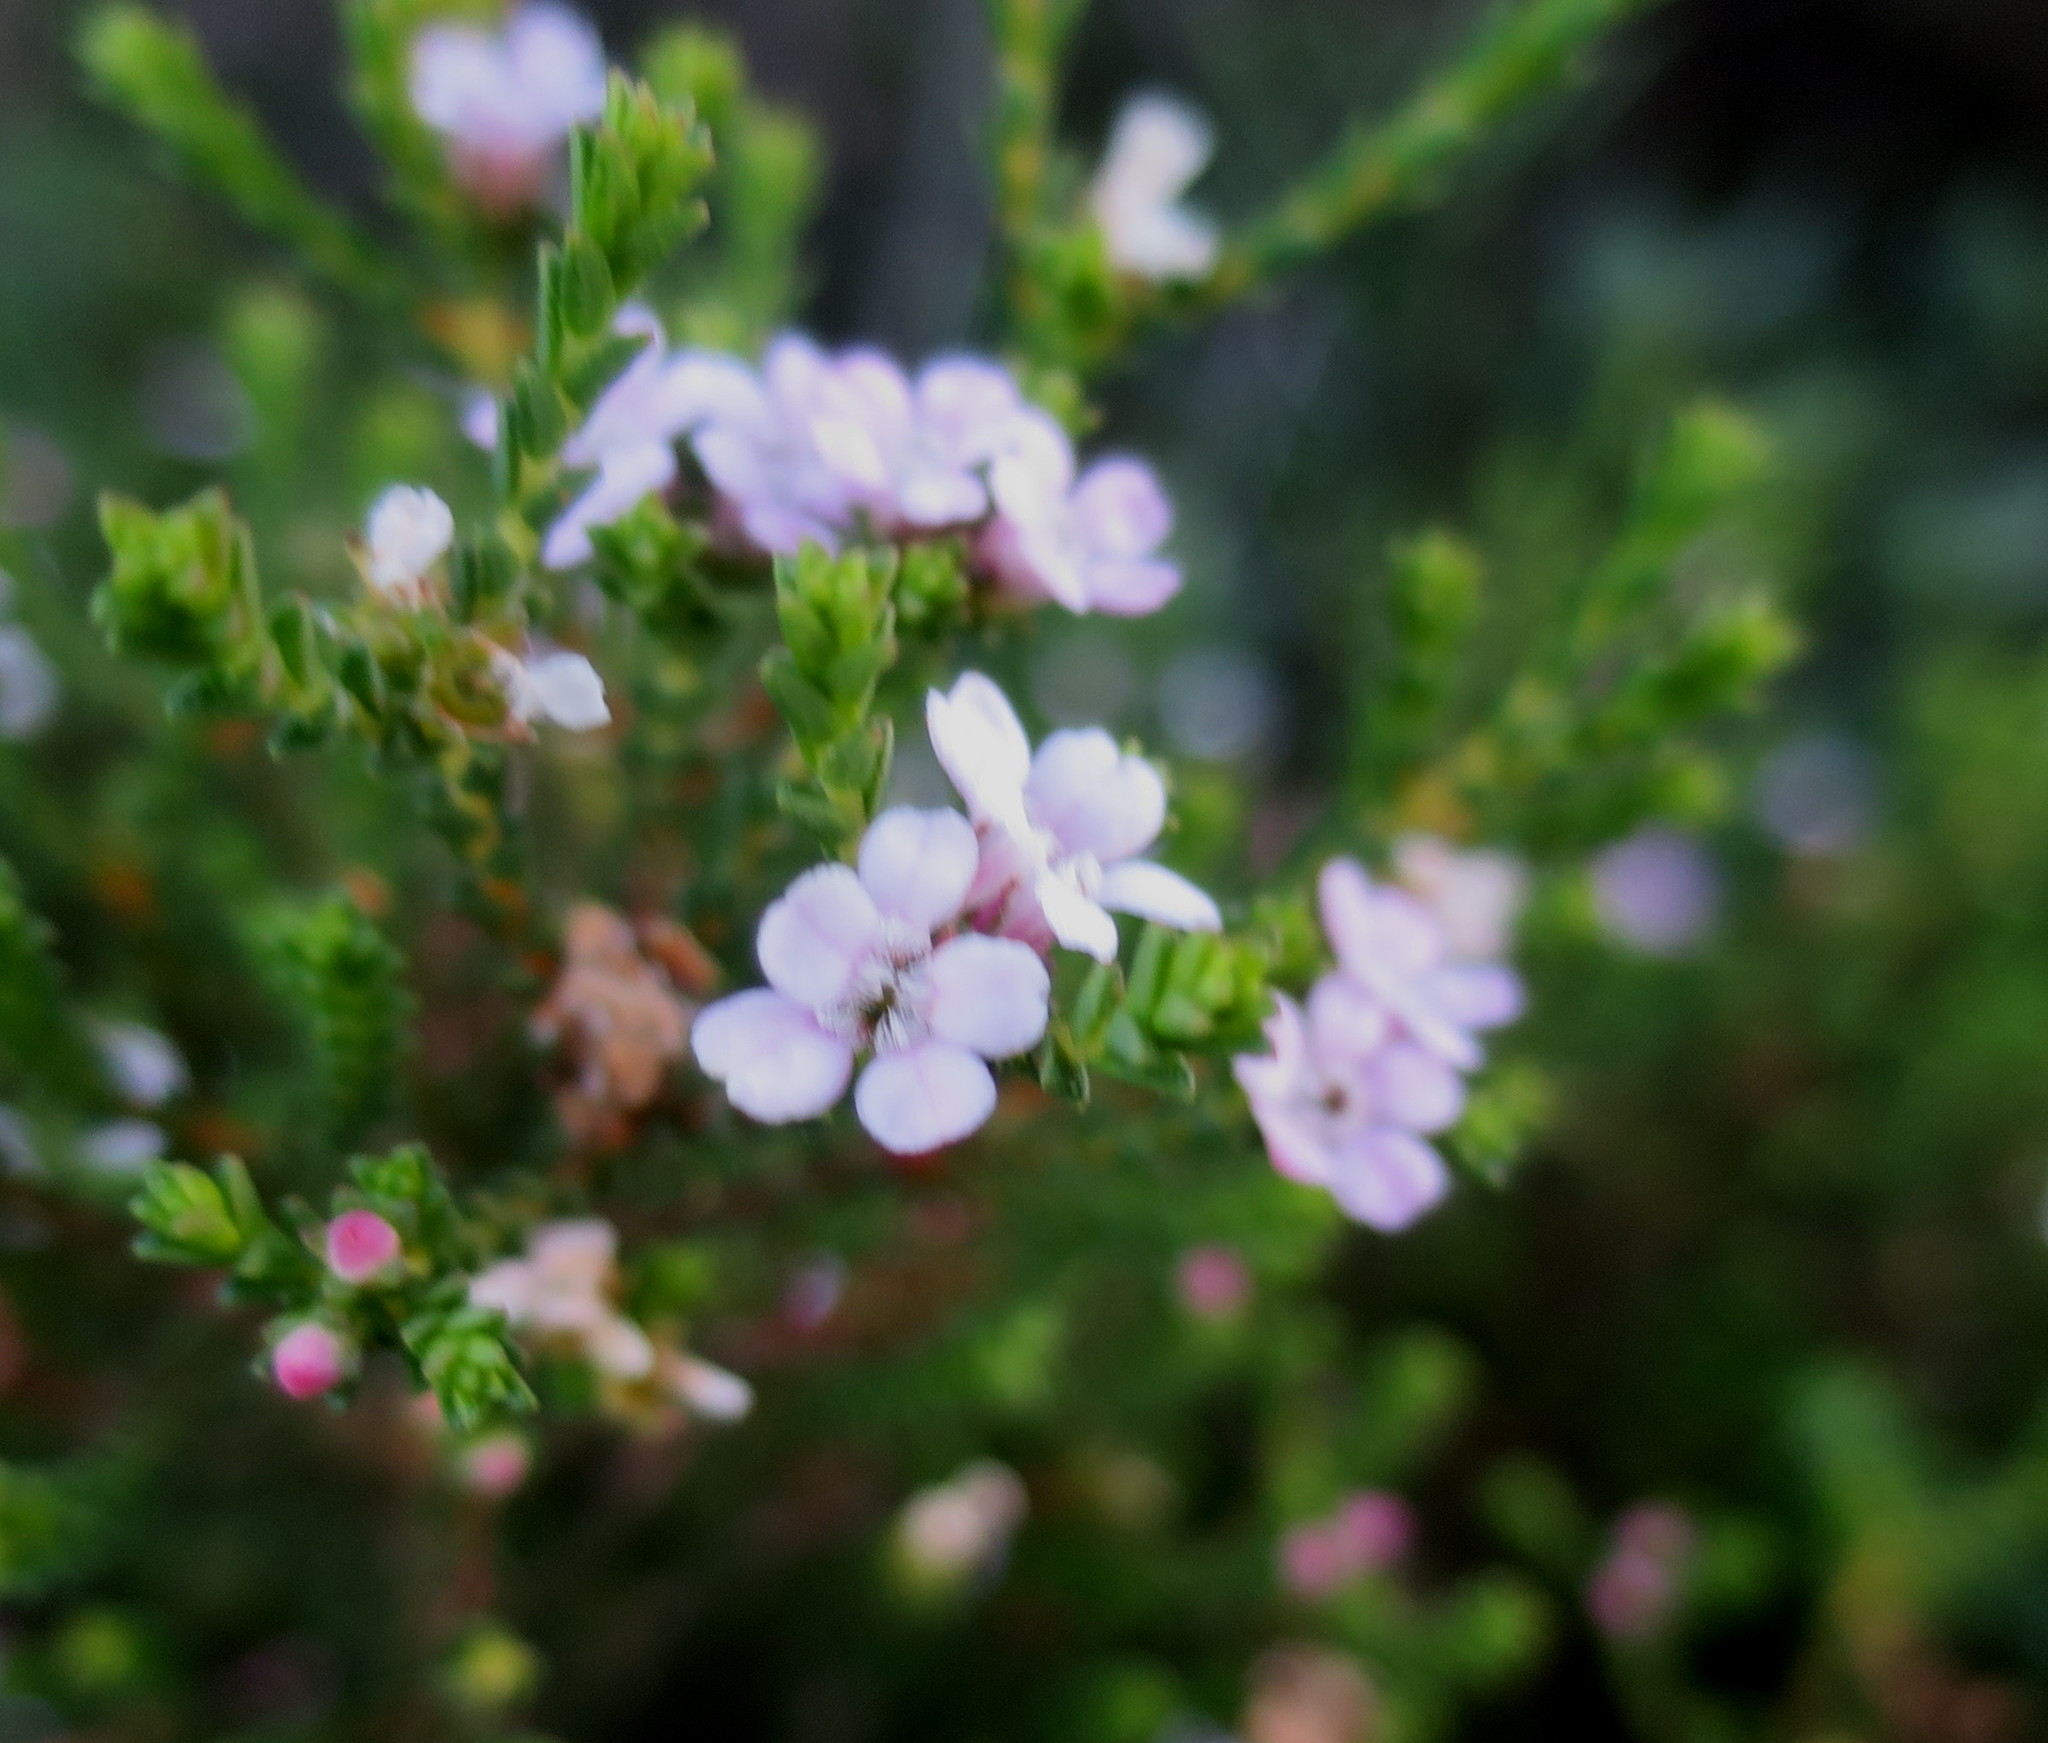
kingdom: Plantae
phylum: Tracheophyta
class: Magnoliopsida
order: Sapindales
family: Rutaceae
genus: Euchaetis
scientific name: Euchaetis albertiniana
